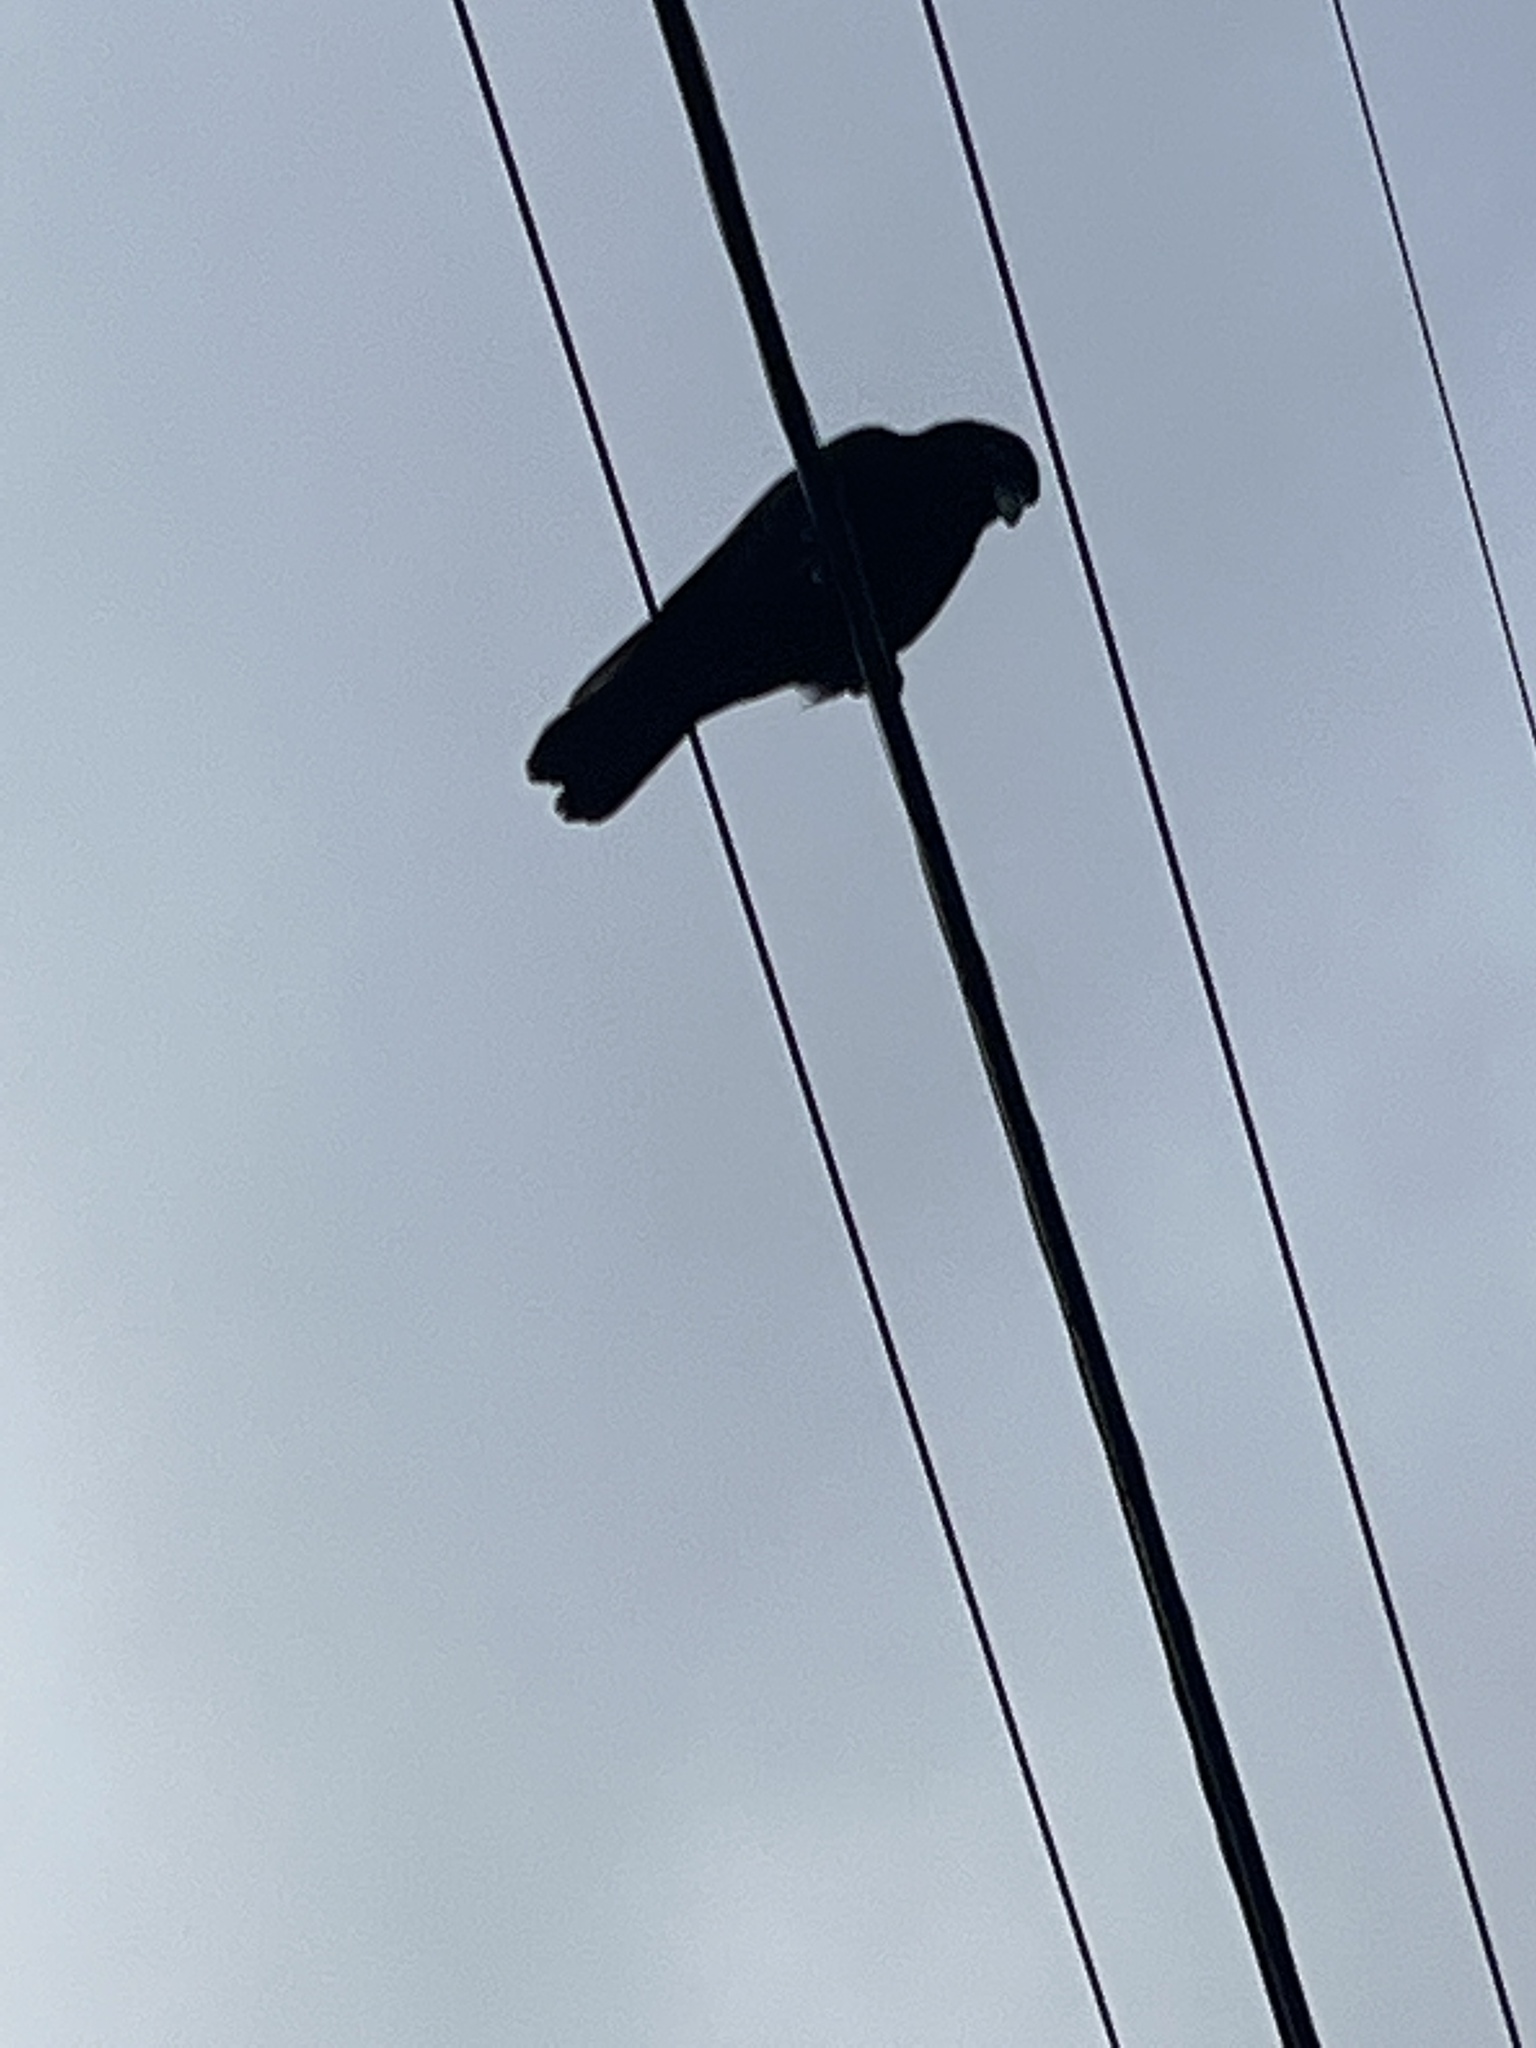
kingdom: Animalia
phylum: Chordata
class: Aves
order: Passeriformes
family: Corvidae
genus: Corvus
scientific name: Corvus ossifragus
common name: Fish crow
